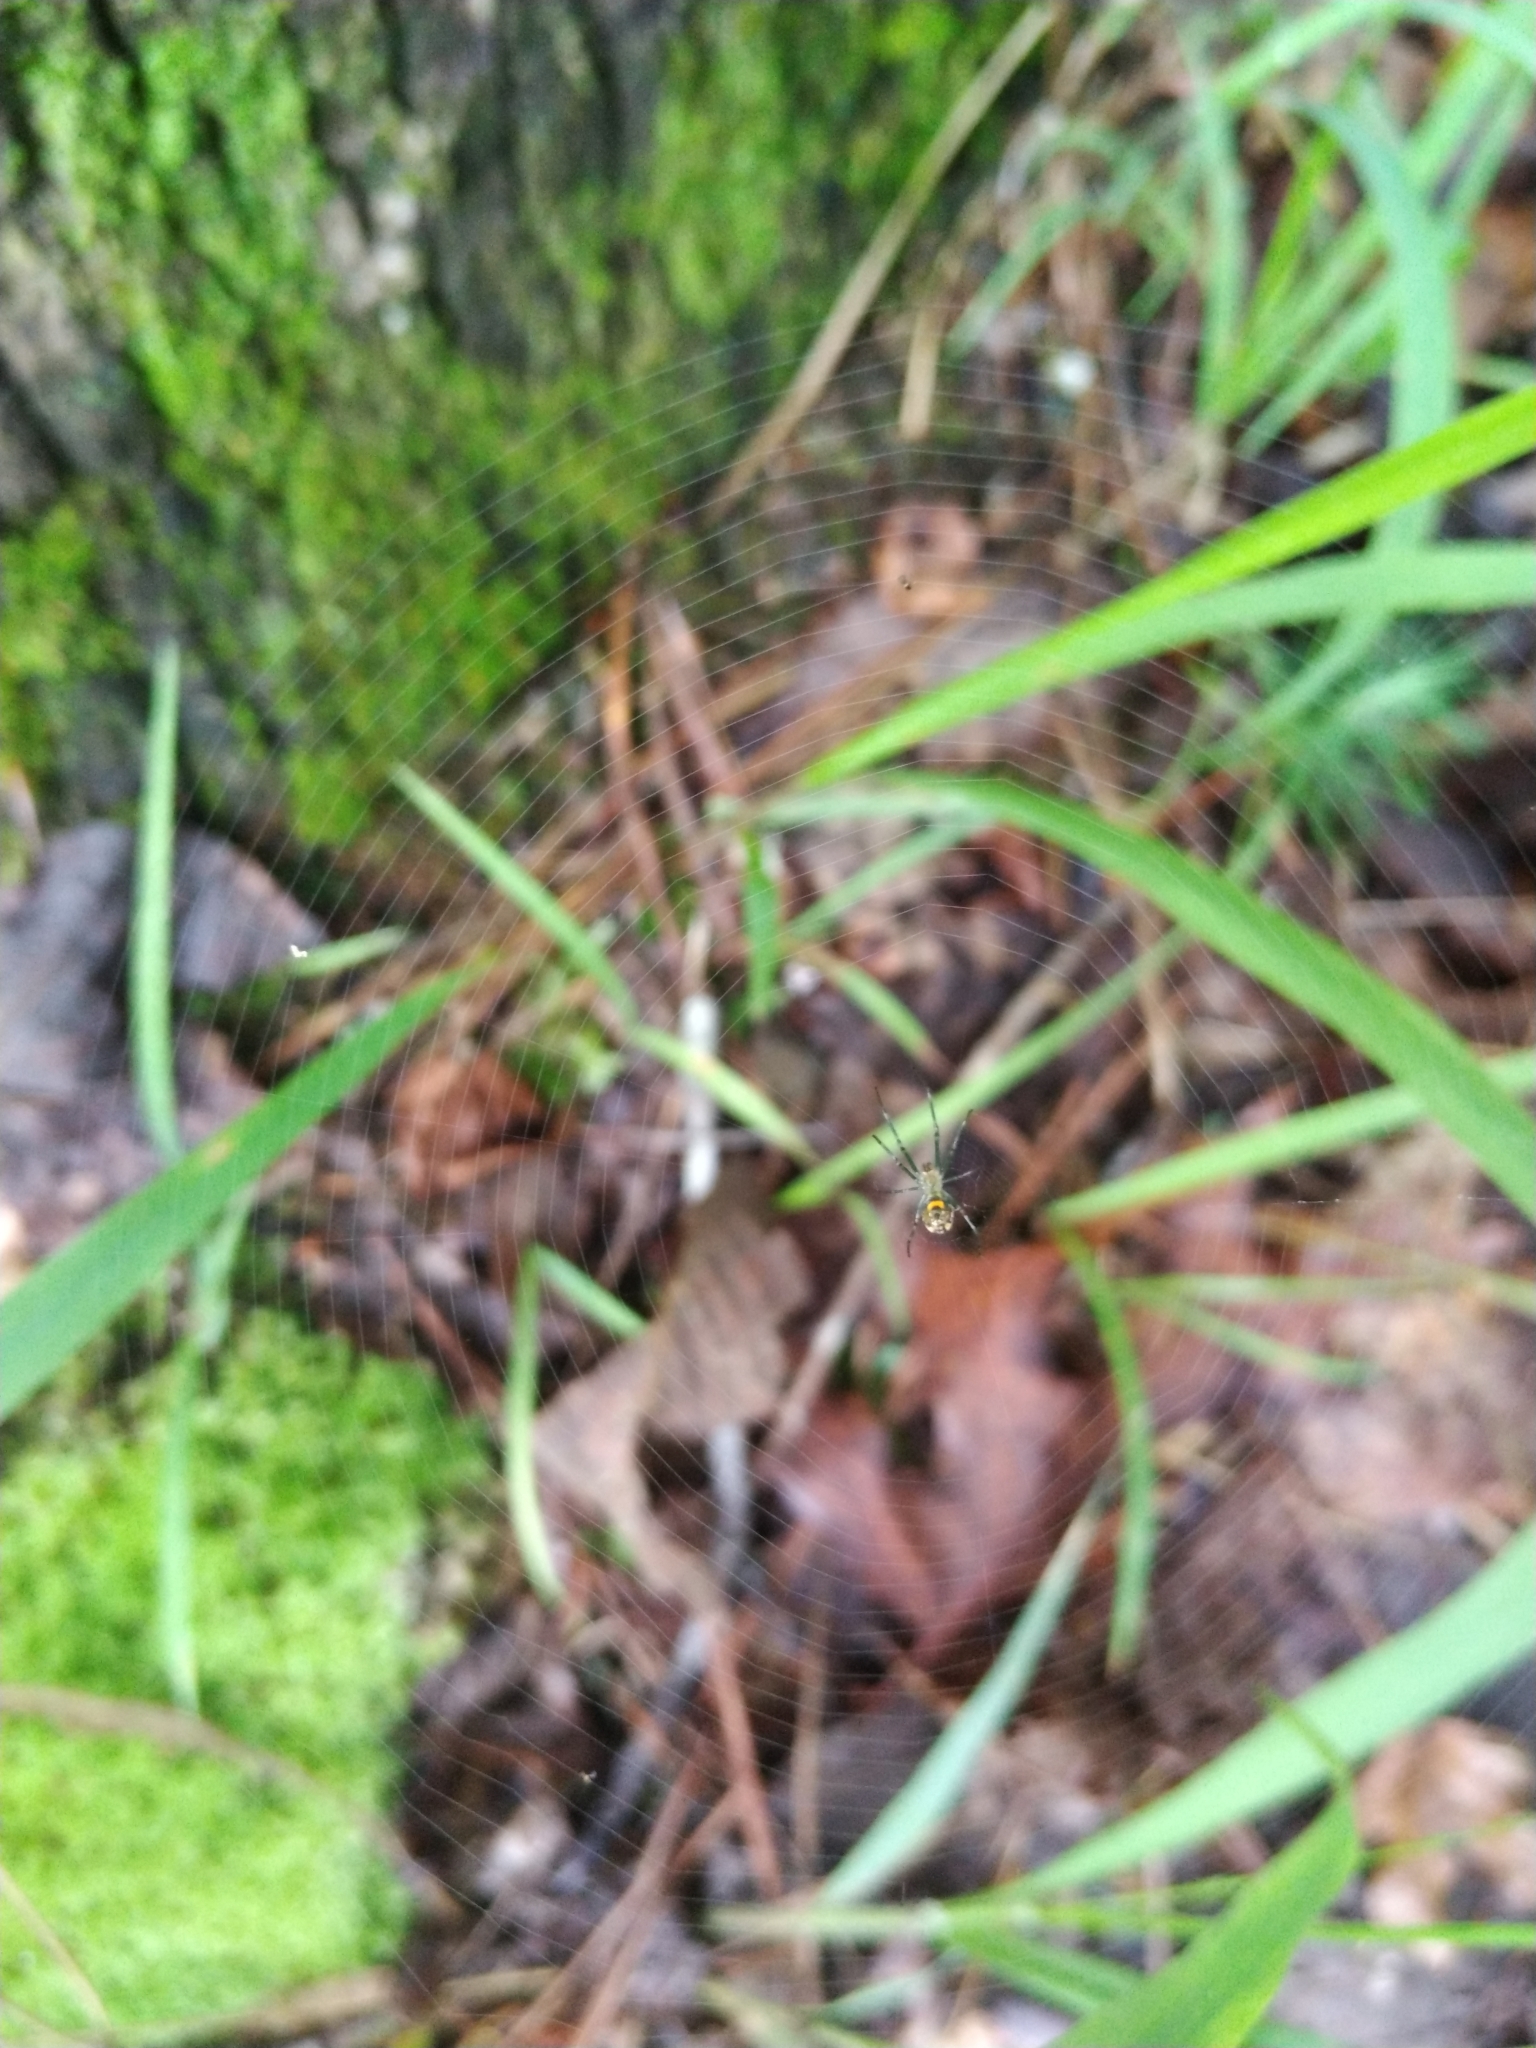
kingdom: Animalia
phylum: Arthropoda
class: Arachnida
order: Araneae
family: Tetragnathidae
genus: Leucauge
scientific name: Leucauge venusta
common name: Longjawed orb weavers
